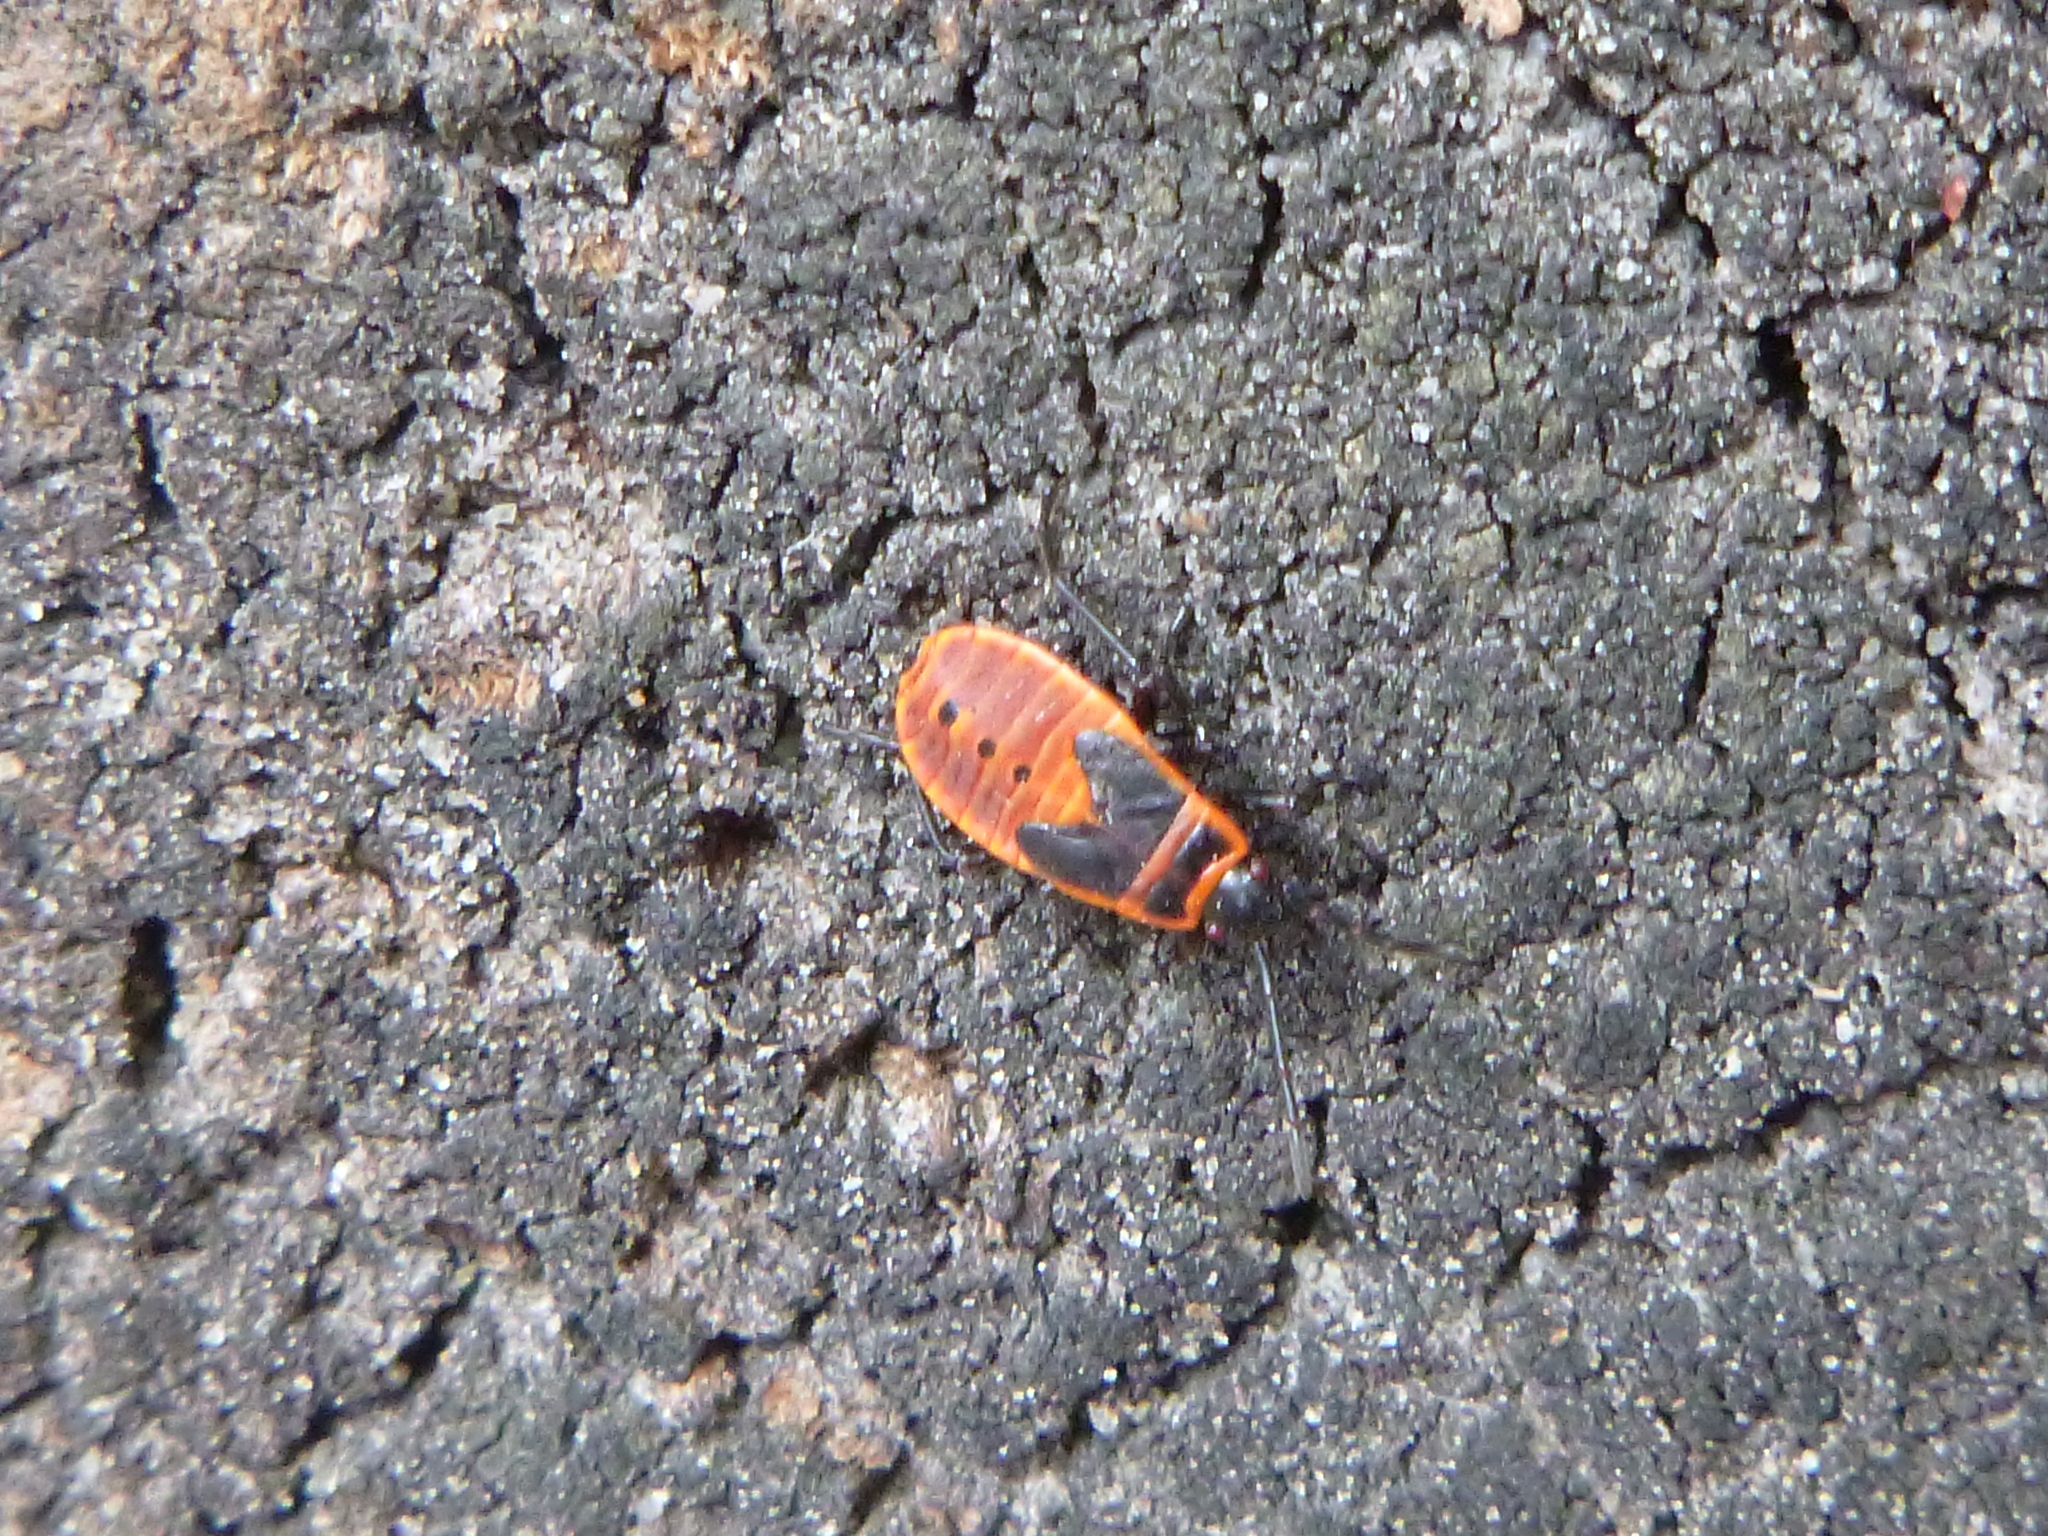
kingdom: Animalia
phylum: Arthropoda
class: Insecta
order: Hemiptera
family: Pyrrhocoridae
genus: Pyrrhocoris
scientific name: Pyrrhocoris apterus
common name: Firebug
